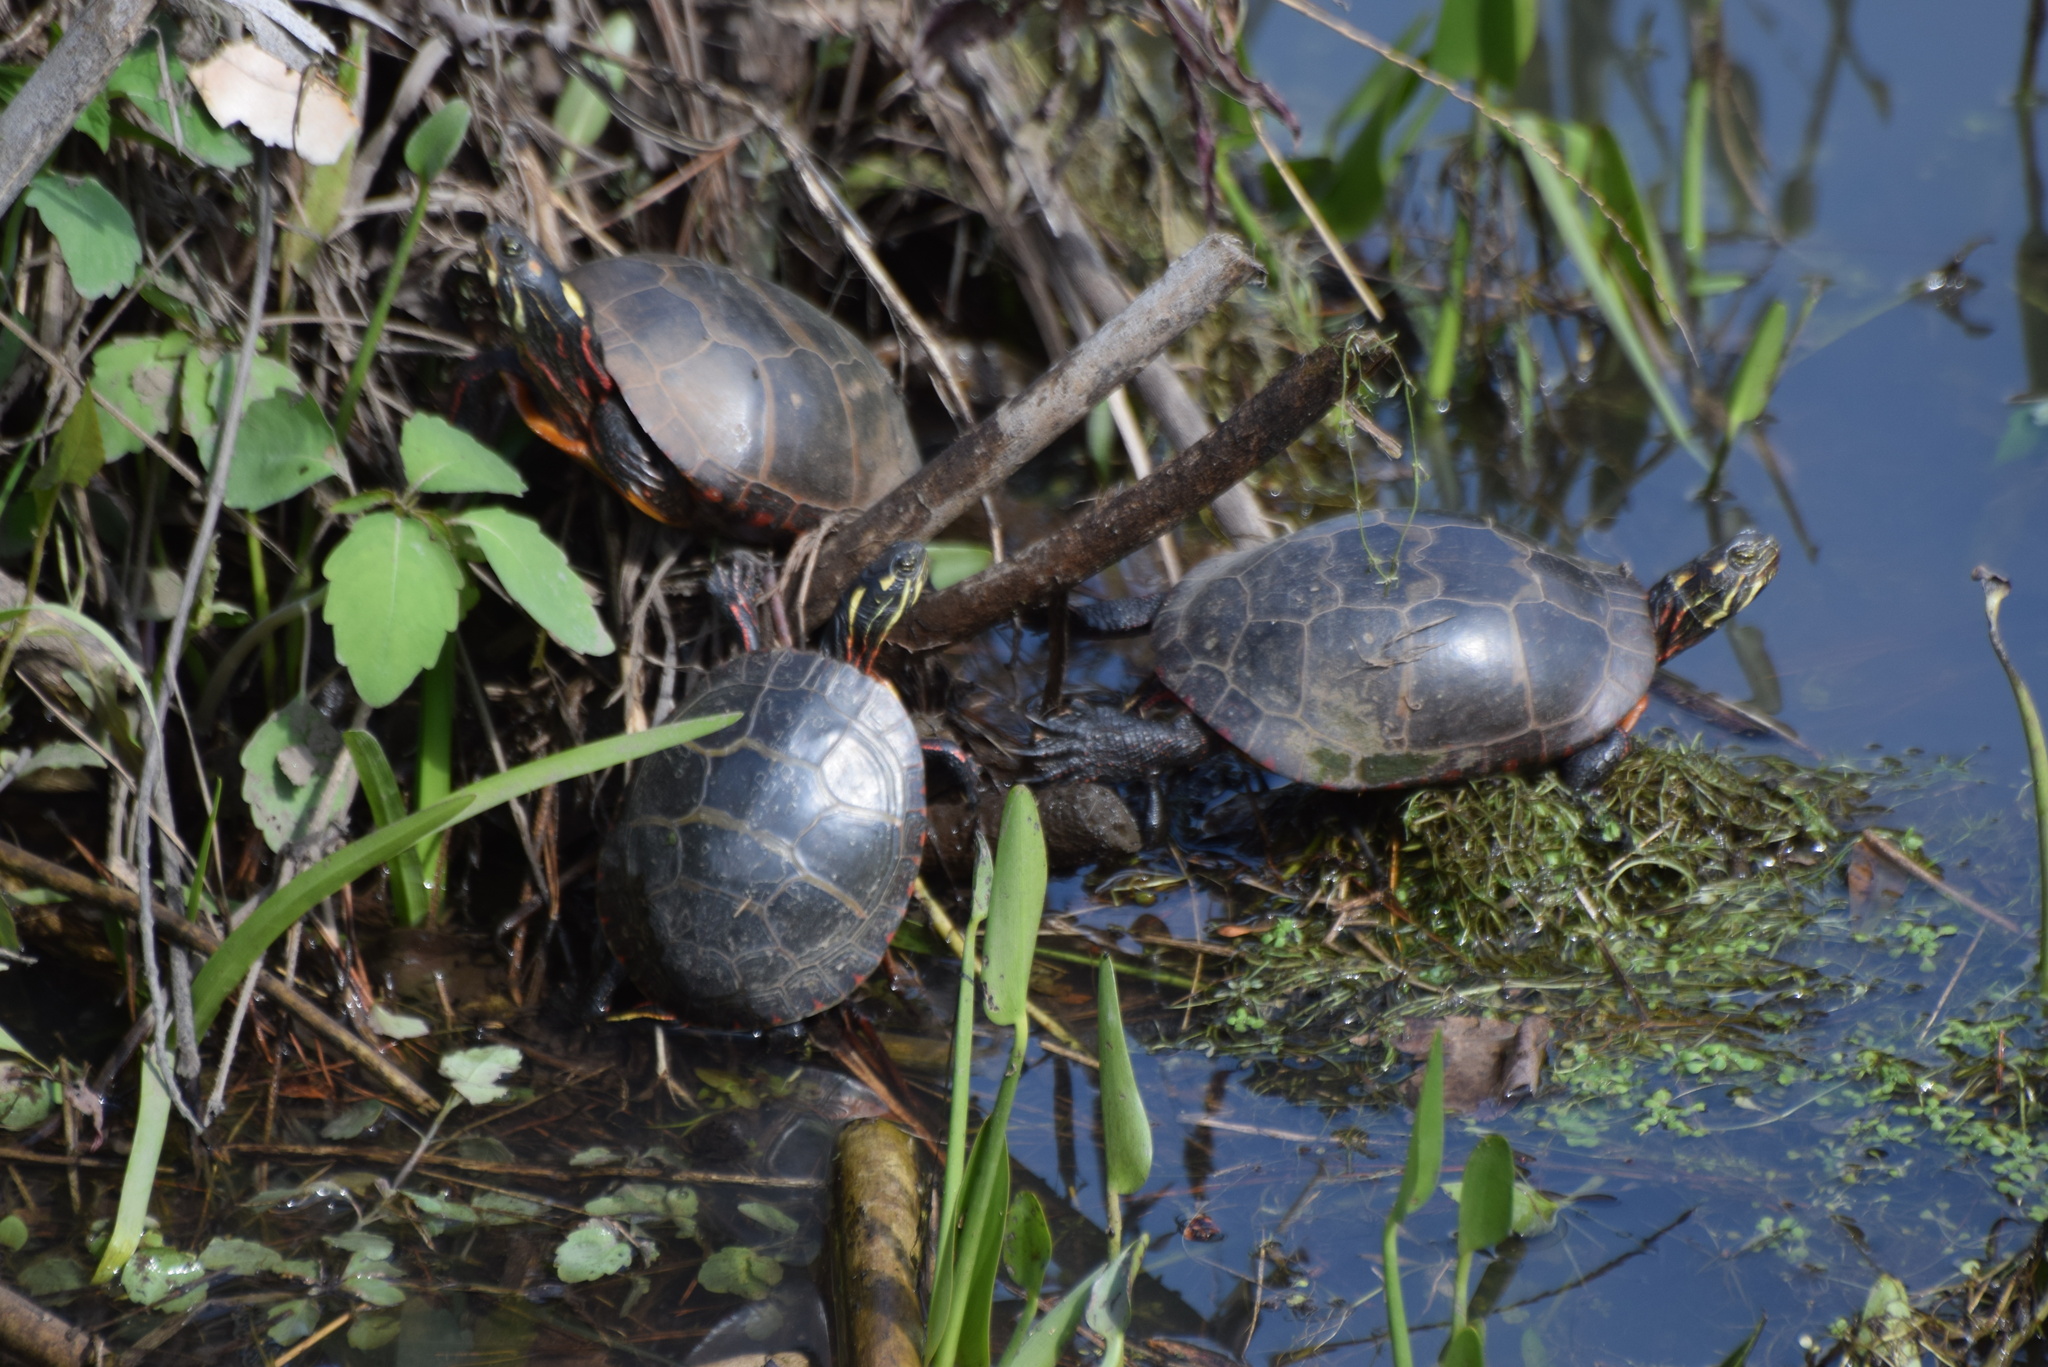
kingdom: Animalia
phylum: Chordata
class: Testudines
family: Emydidae
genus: Chrysemys
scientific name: Chrysemys picta
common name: Painted turtle
